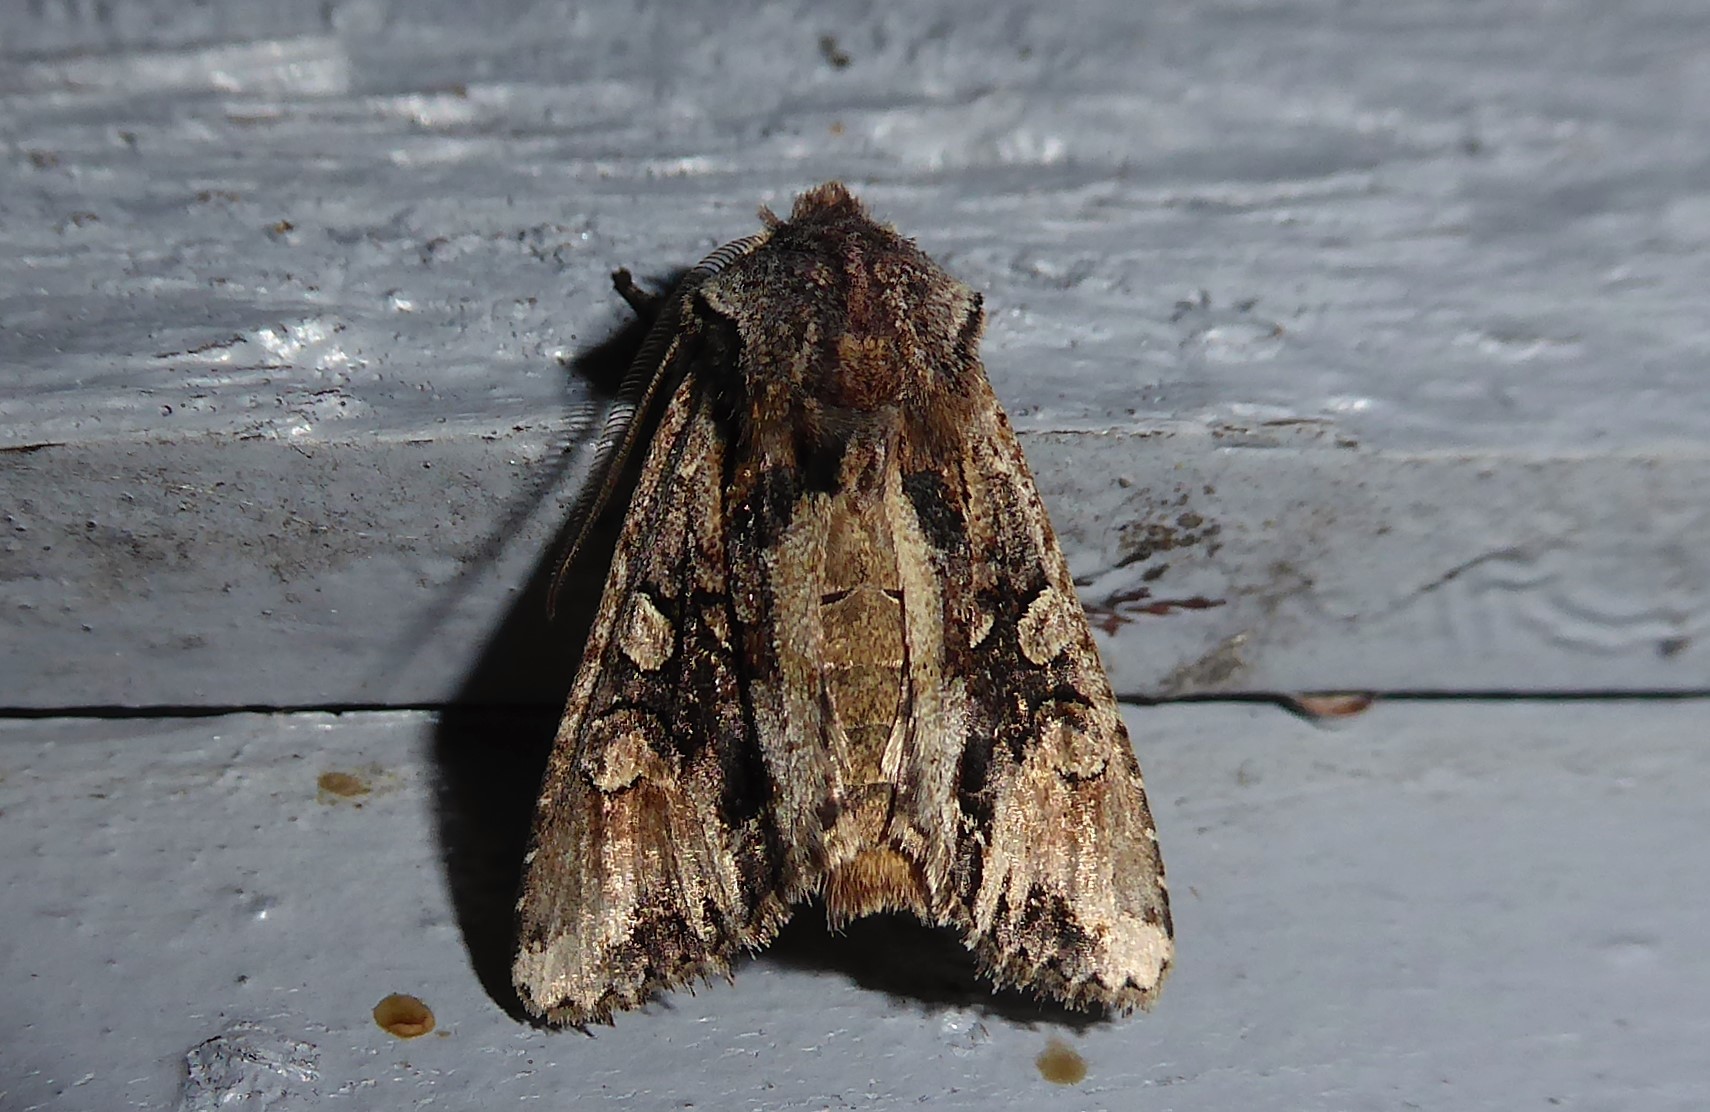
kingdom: Animalia
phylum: Arthropoda
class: Insecta
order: Lepidoptera
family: Noctuidae
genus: Ichneutica
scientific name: Ichneutica
